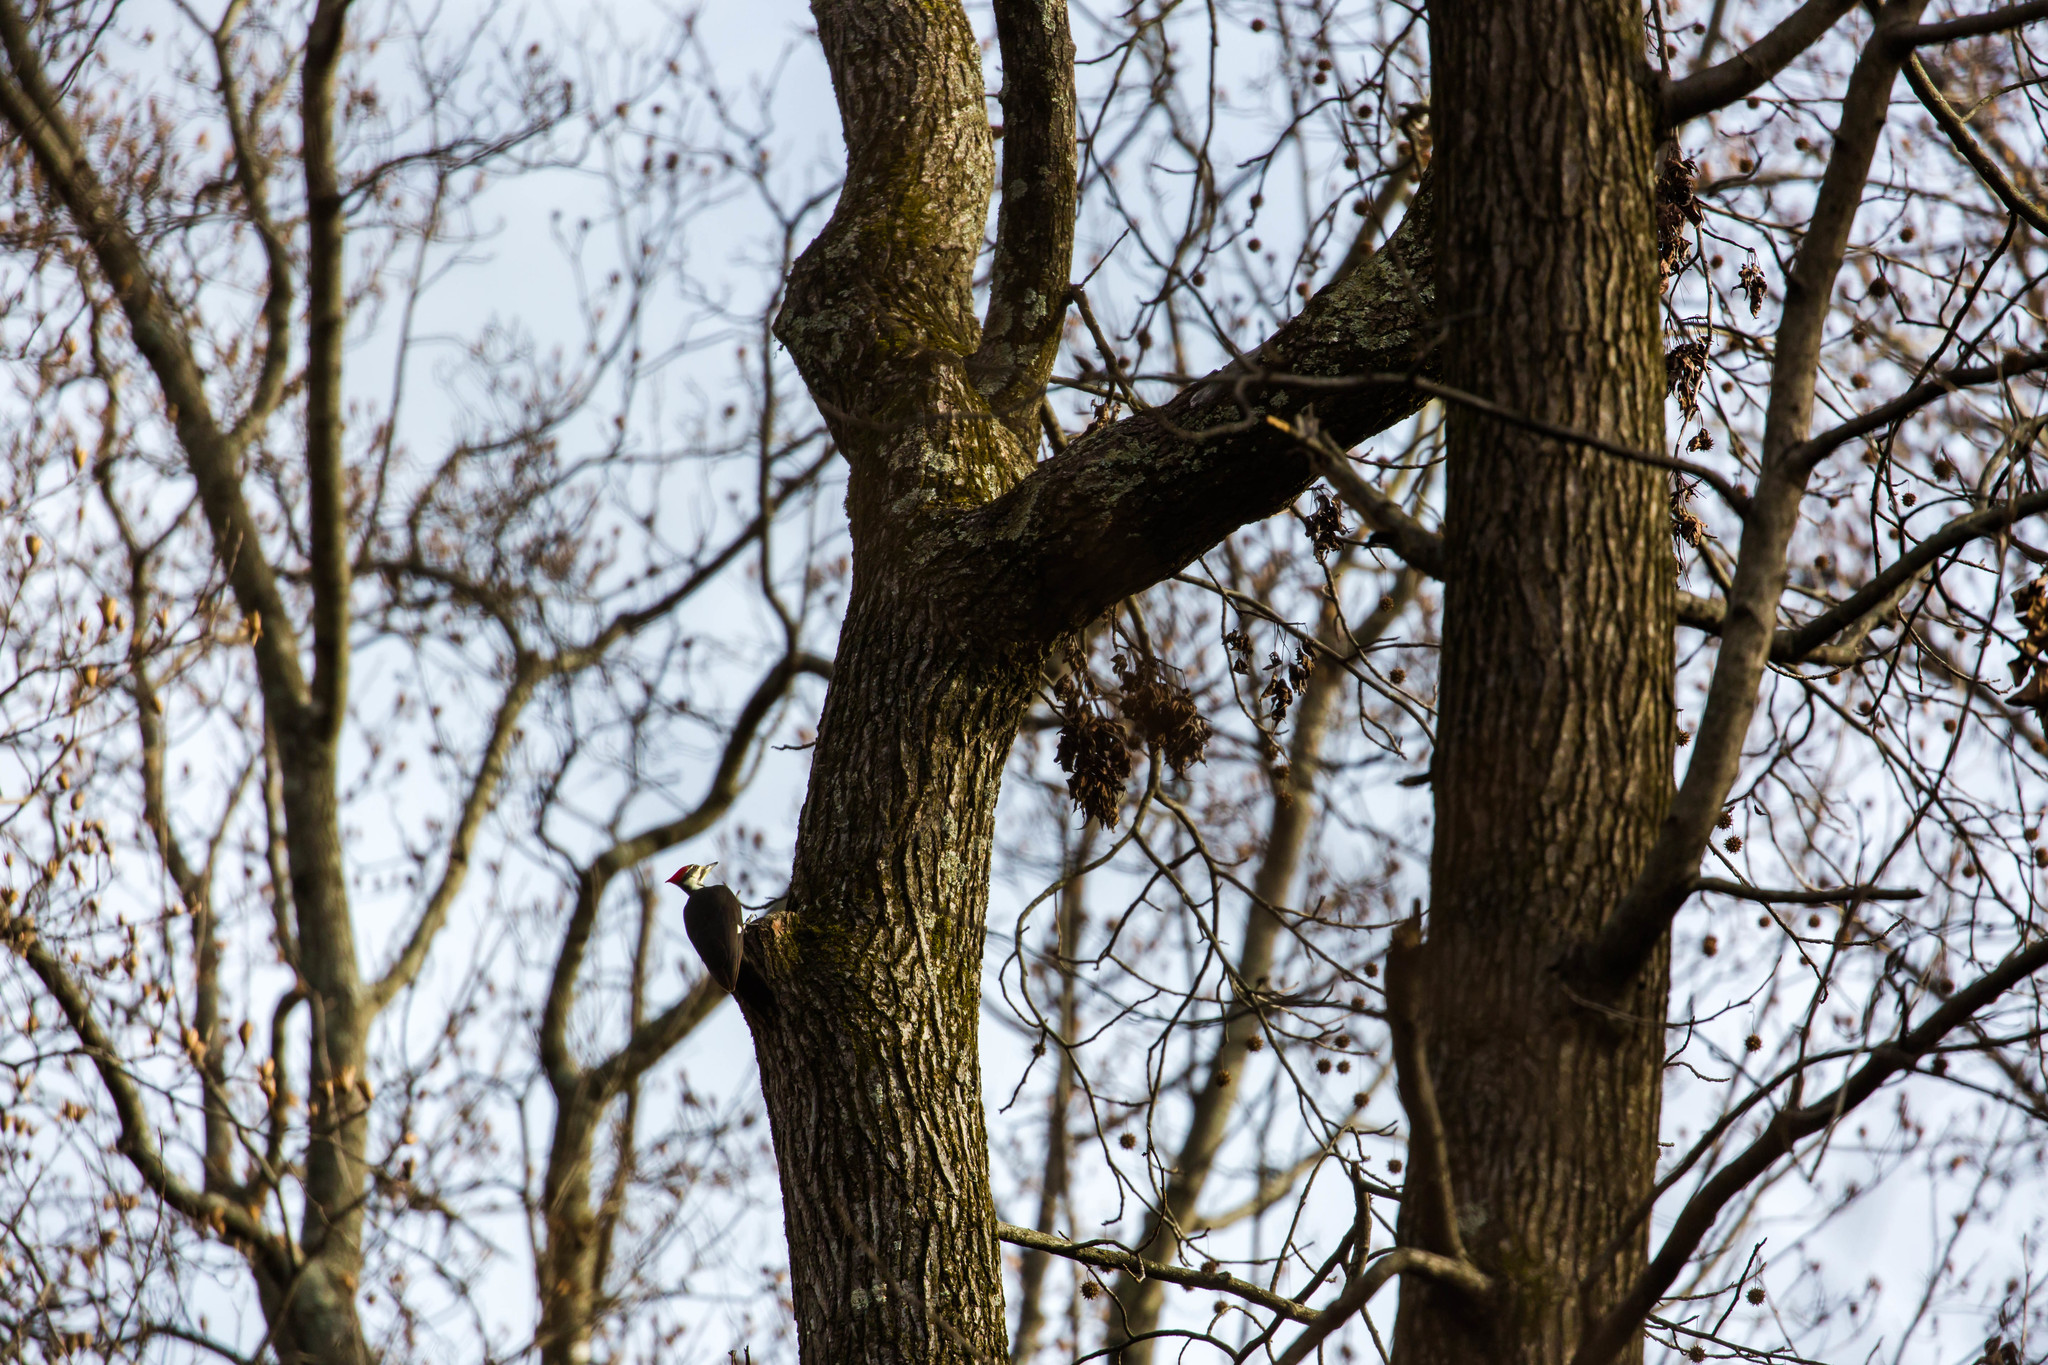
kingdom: Animalia
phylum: Chordata
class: Aves
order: Piciformes
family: Picidae
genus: Dryocopus
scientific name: Dryocopus pileatus
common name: Pileated woodpecker
